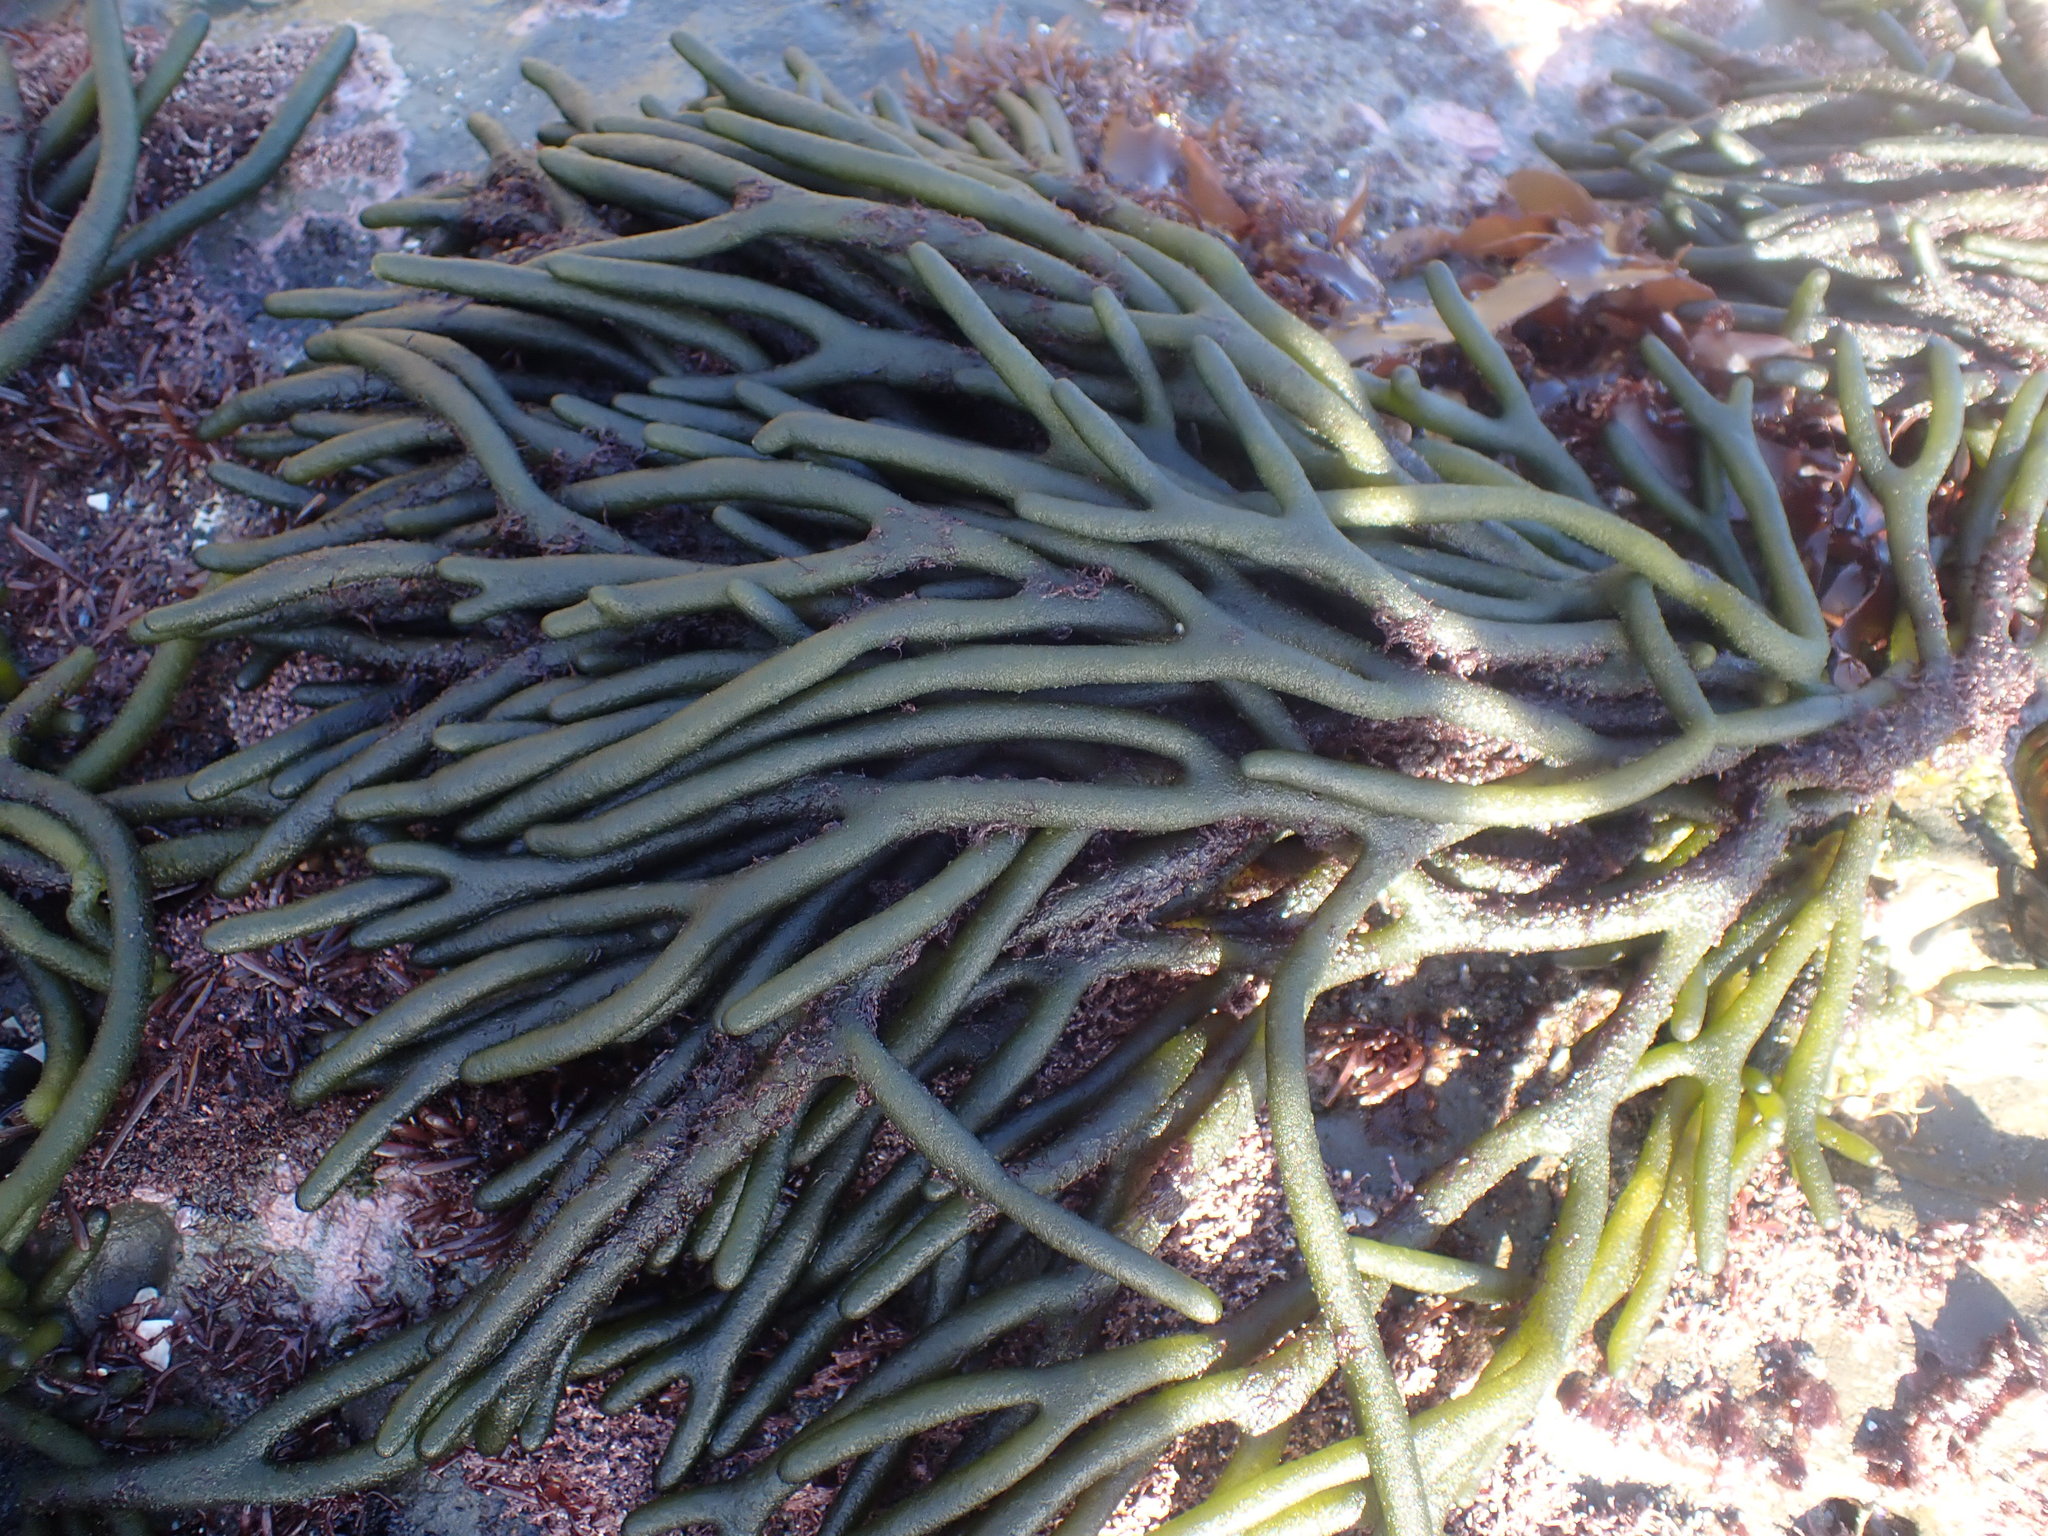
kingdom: Plantae
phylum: Chlorophyta
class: Ulvophyceae
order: Bryopsidales
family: Codiaceae
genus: Codium
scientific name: Codium fragile
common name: Dead man's fingers
